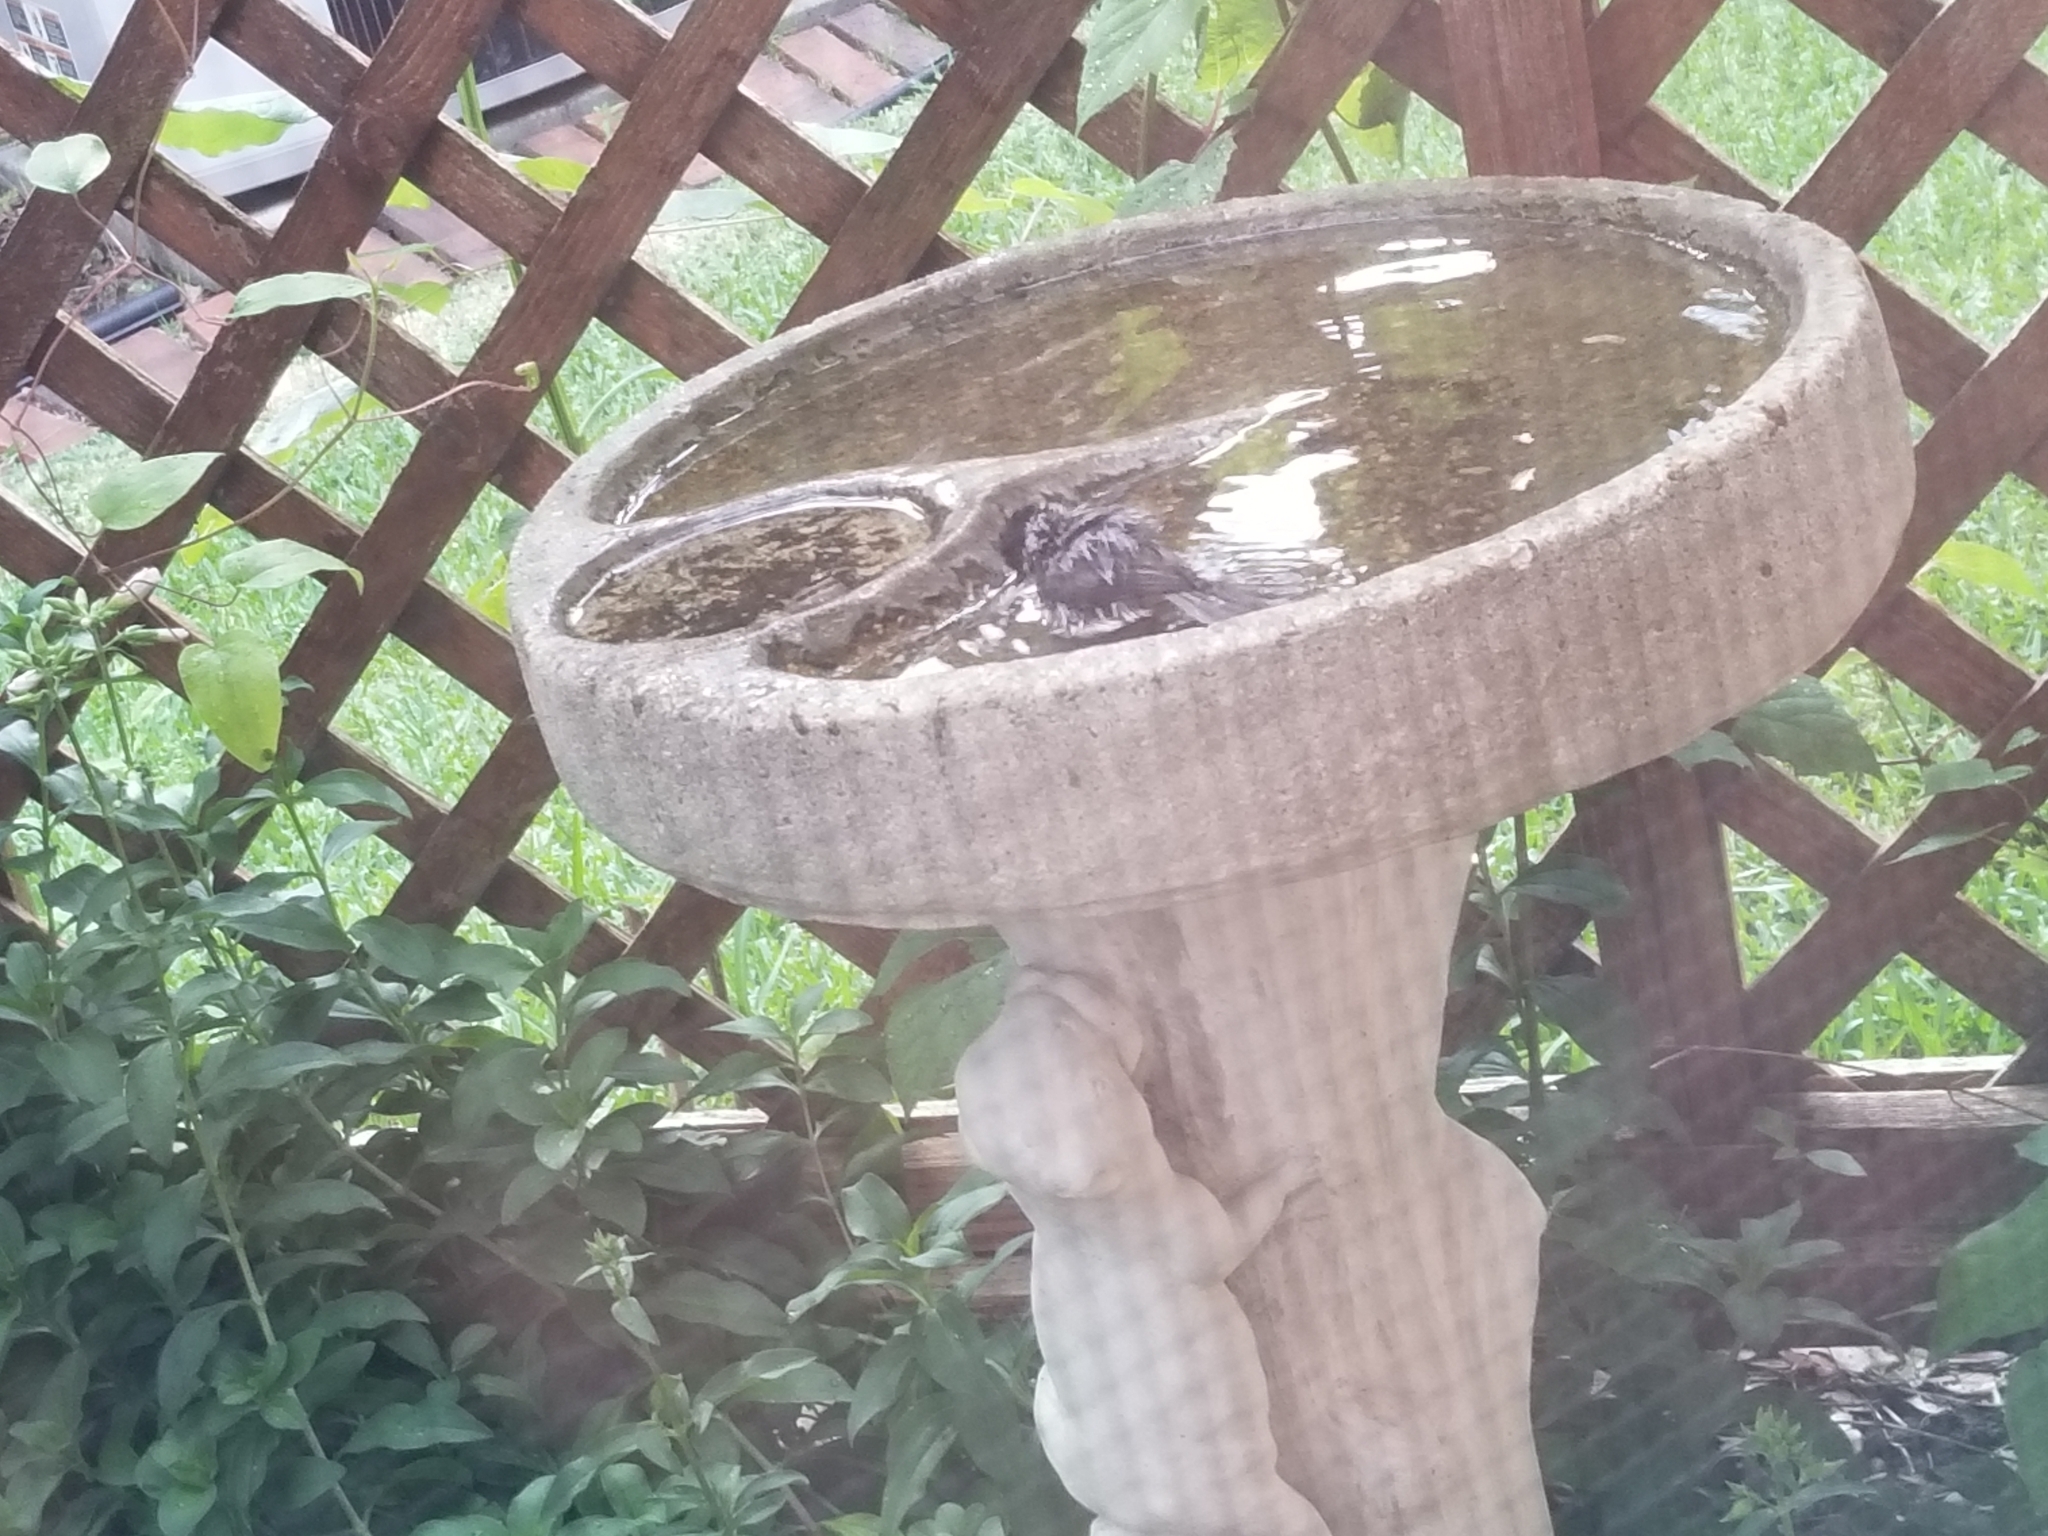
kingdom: Animalia
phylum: Chordata
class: Aves
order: Passeriformes
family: Paridae
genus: Poecile
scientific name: Poecile carolinensis
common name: Carolina chickadee
